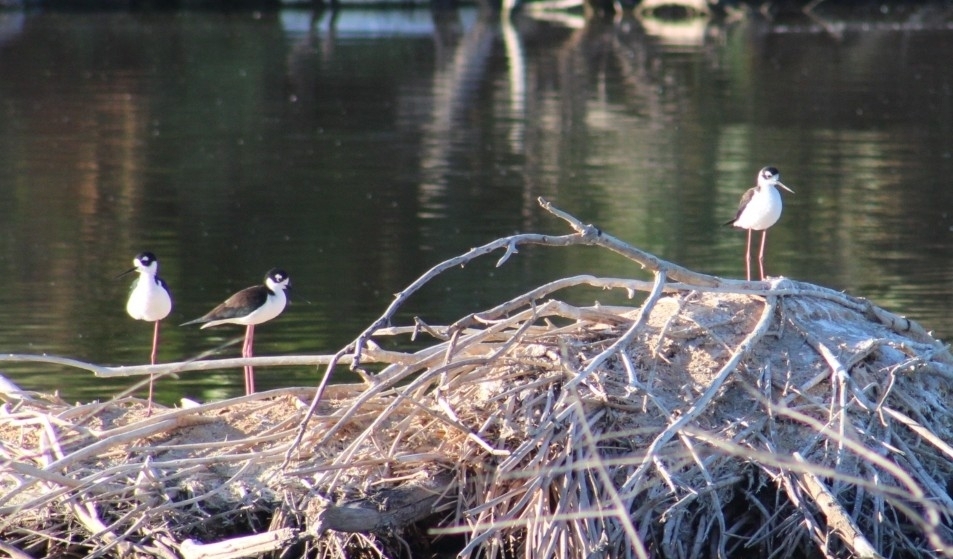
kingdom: Animalia
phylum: Chordata
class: Aves
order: Charadriiformes
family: Recurvirostridae
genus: Himantopus
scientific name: Himantopus mexicanus
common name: Black-necked stilt
